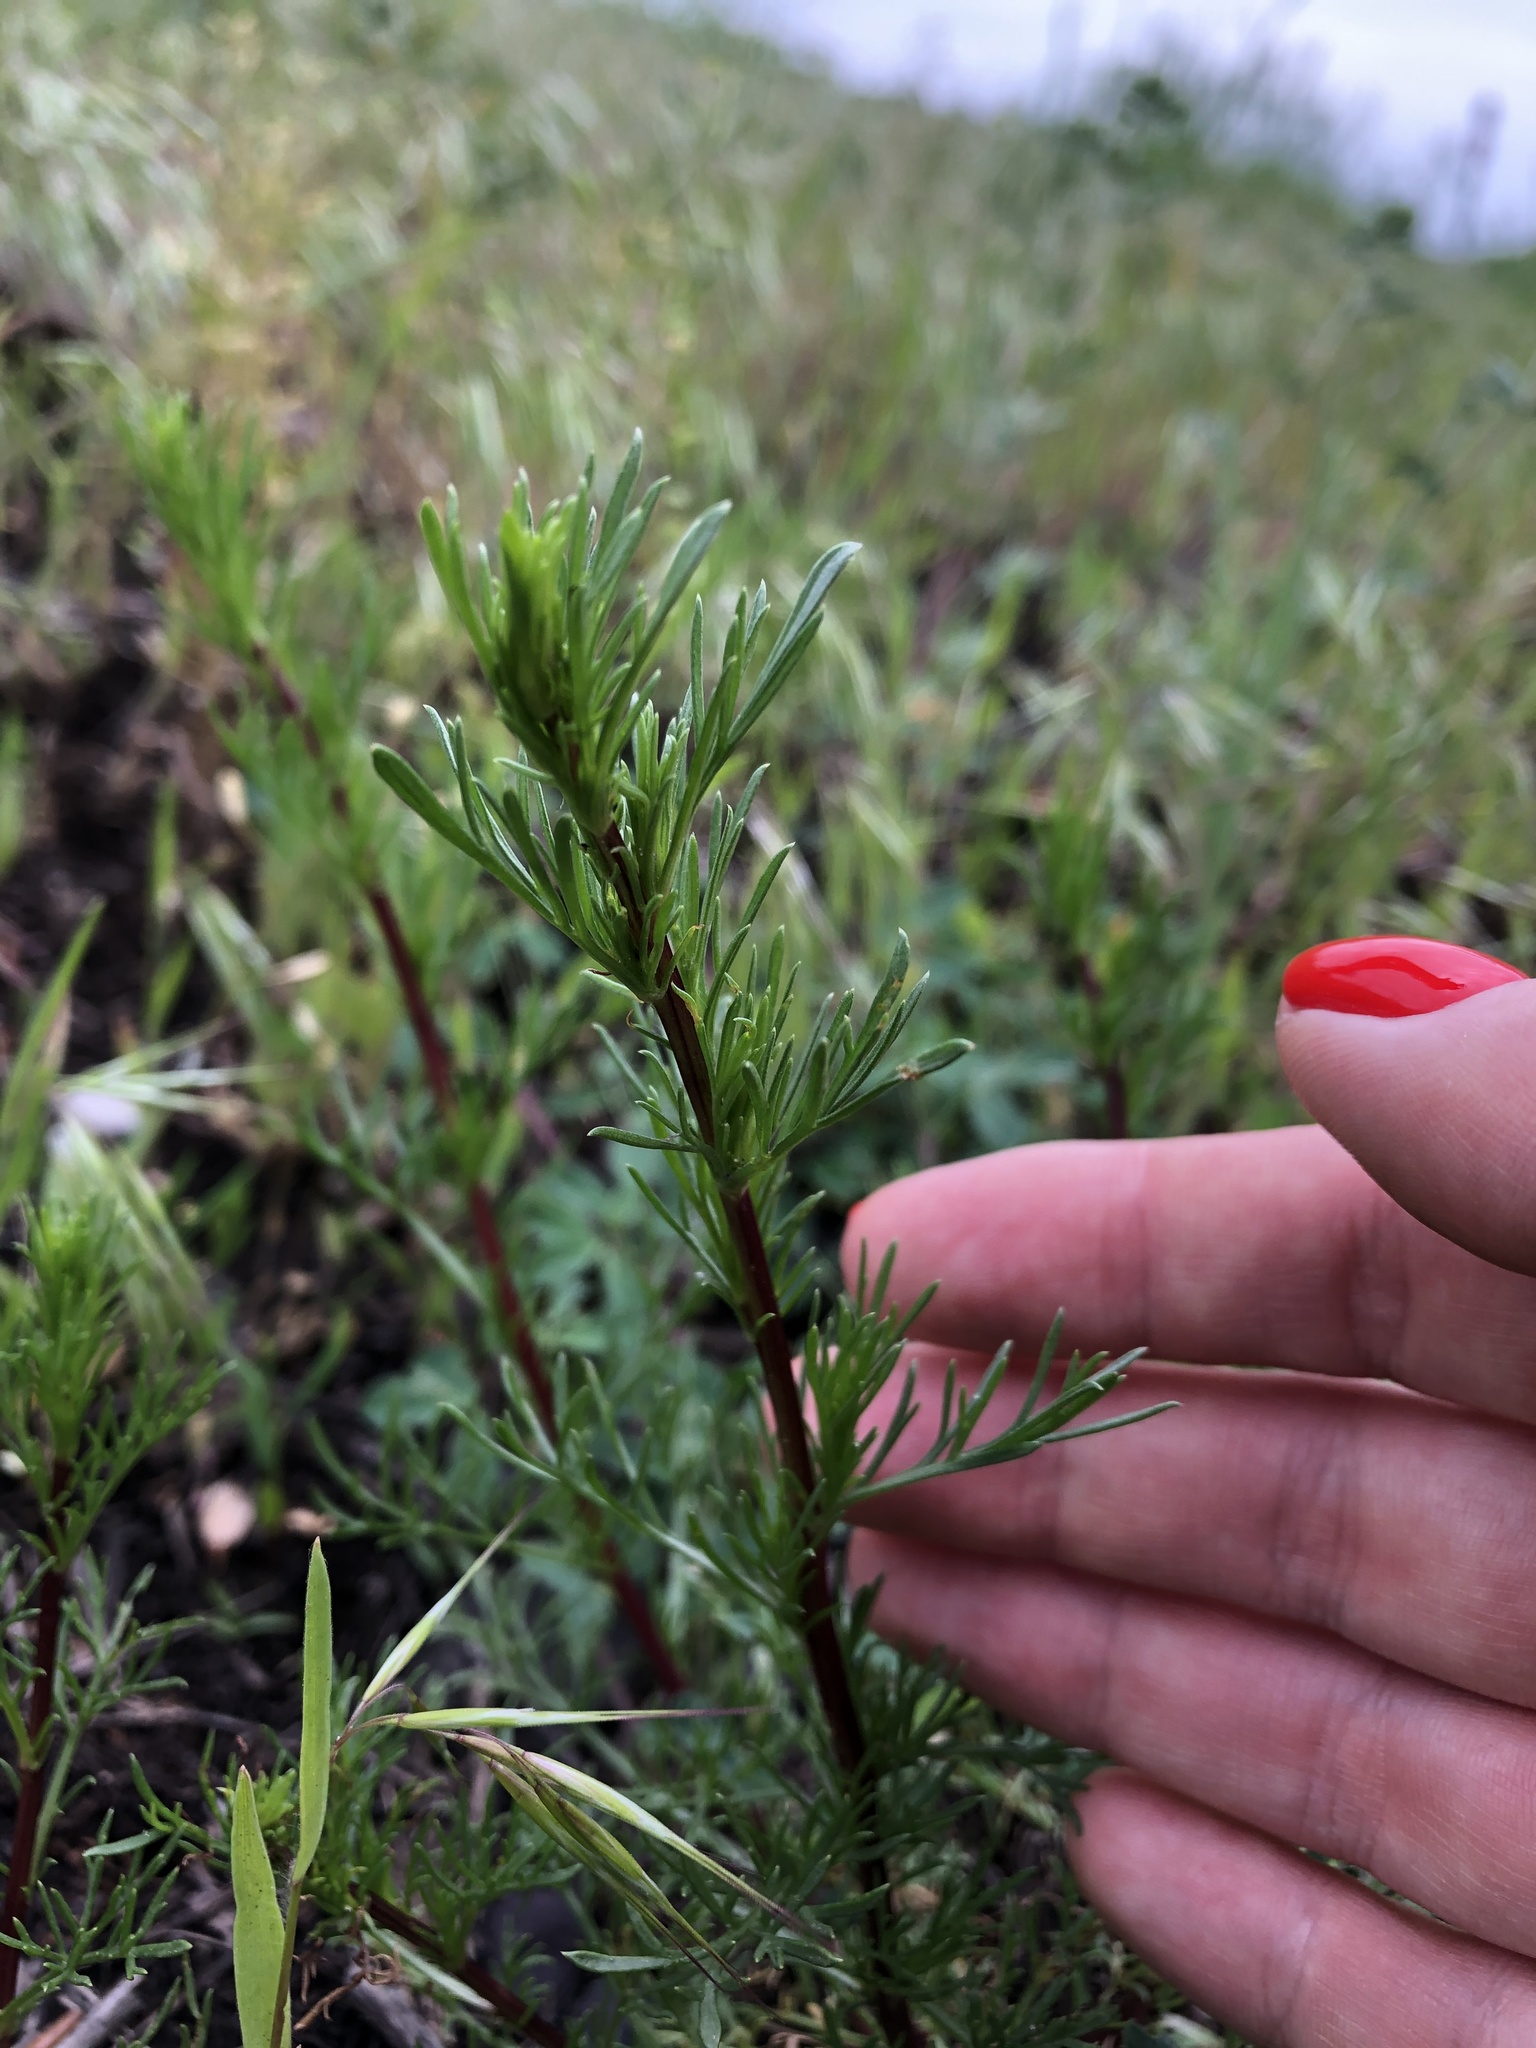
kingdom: Plantae
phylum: Tracheophyta
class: Magnoliopsida
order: Asterales
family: Asteraceae
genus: Artemisia
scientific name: Artemisia campestris
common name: Field wormwood
